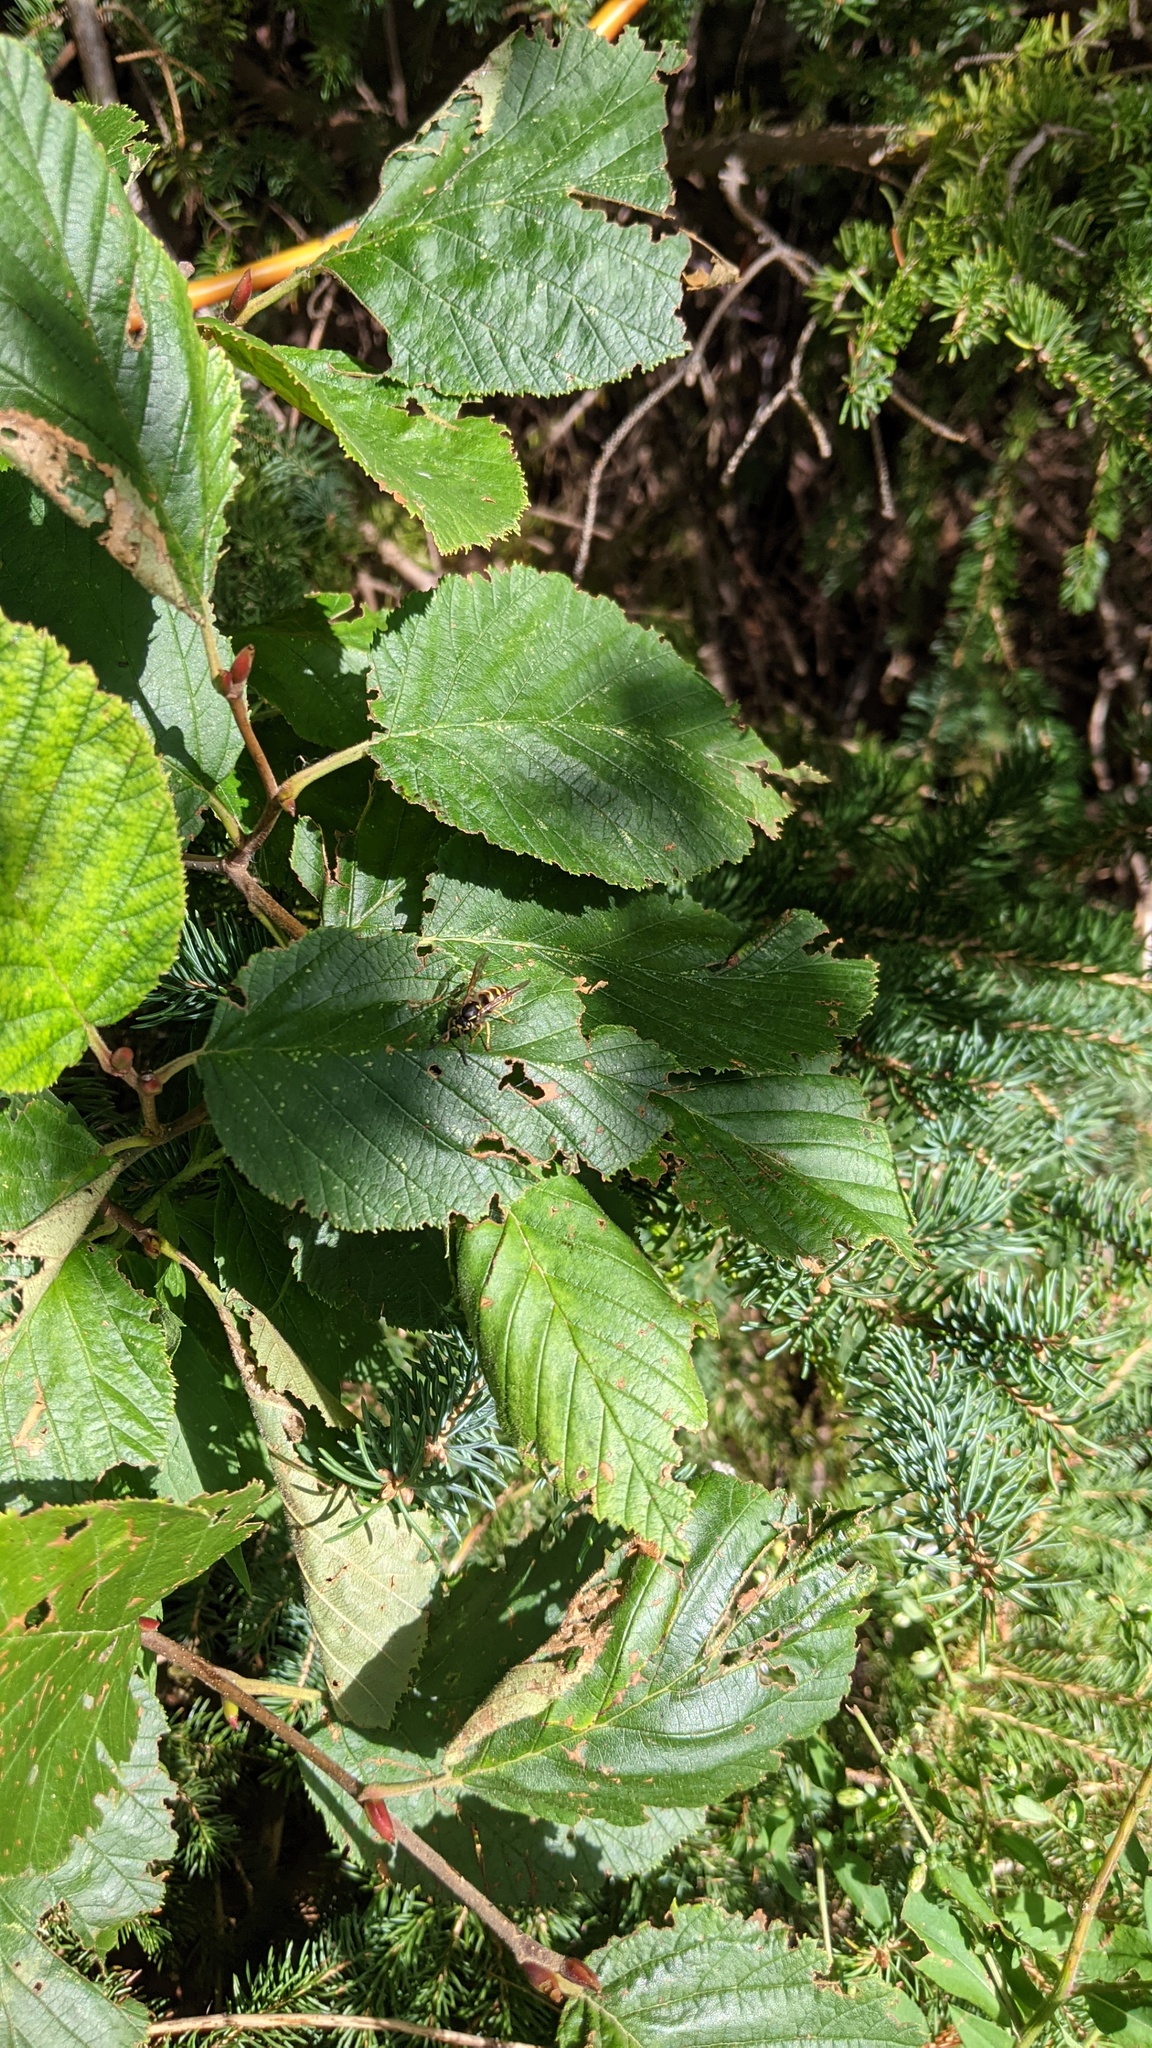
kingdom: Plantae
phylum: Tracheophyta
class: Magnoliopsida
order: Fagales
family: Betulaceae
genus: Alnus
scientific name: Alnus alnobetula
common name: Green alder
